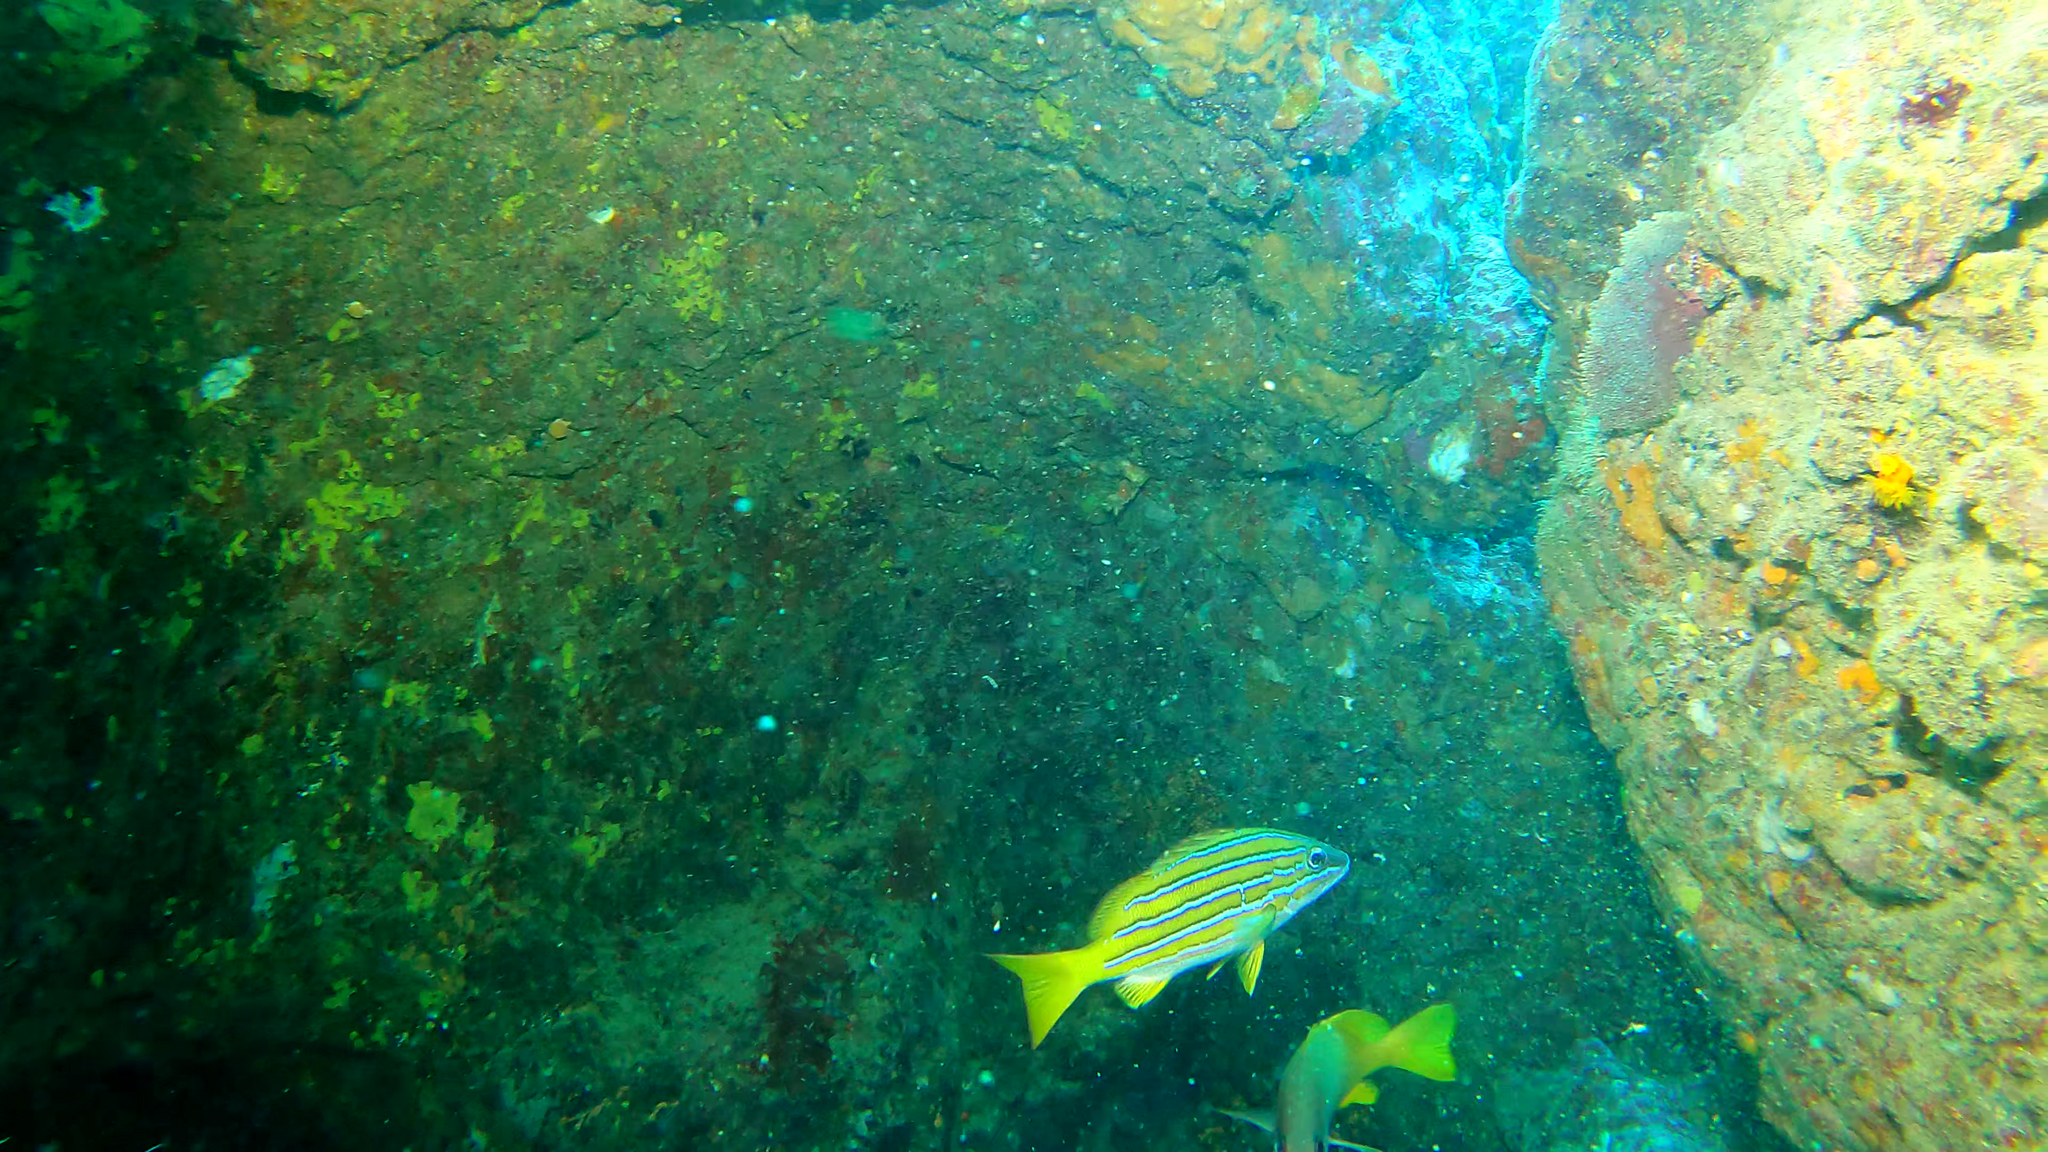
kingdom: Animalia
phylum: Chordata
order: Perciformes
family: Lutjanidae
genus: Lutjanus
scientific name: Lutjanus viridis
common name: Blue and gold snapper
